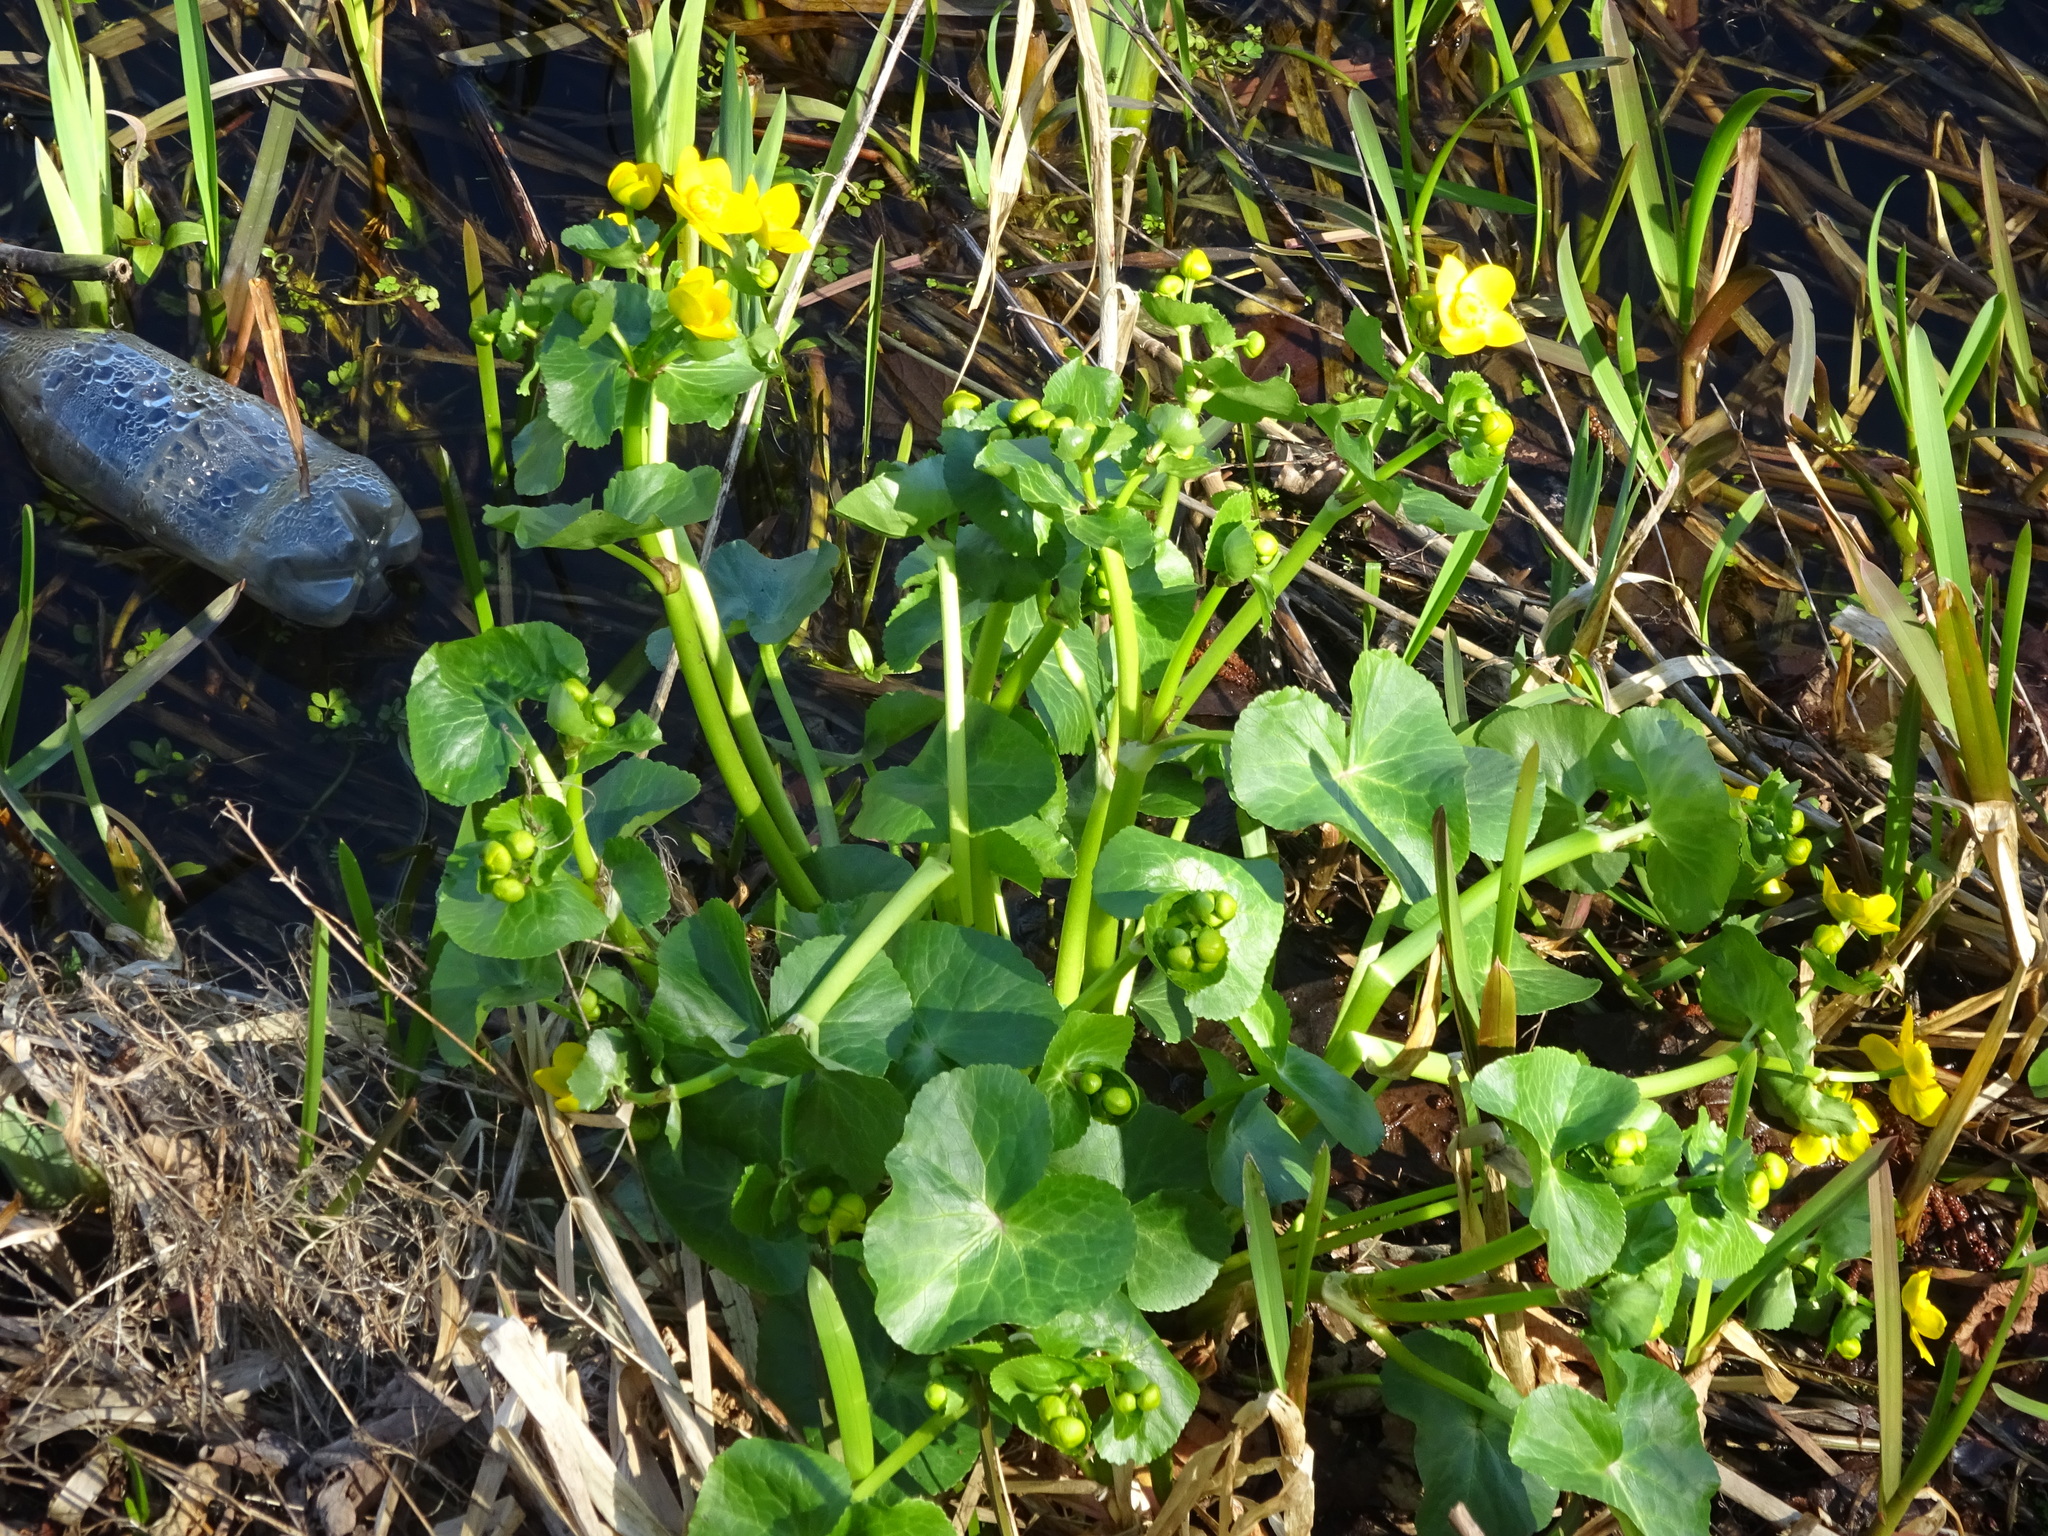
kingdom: Plantae
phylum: Tracheophyta
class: Magnoliopsida
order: Ranunculales
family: Ranunculaceae
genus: Caltha
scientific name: Caltha palustris
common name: Marsh marigold
